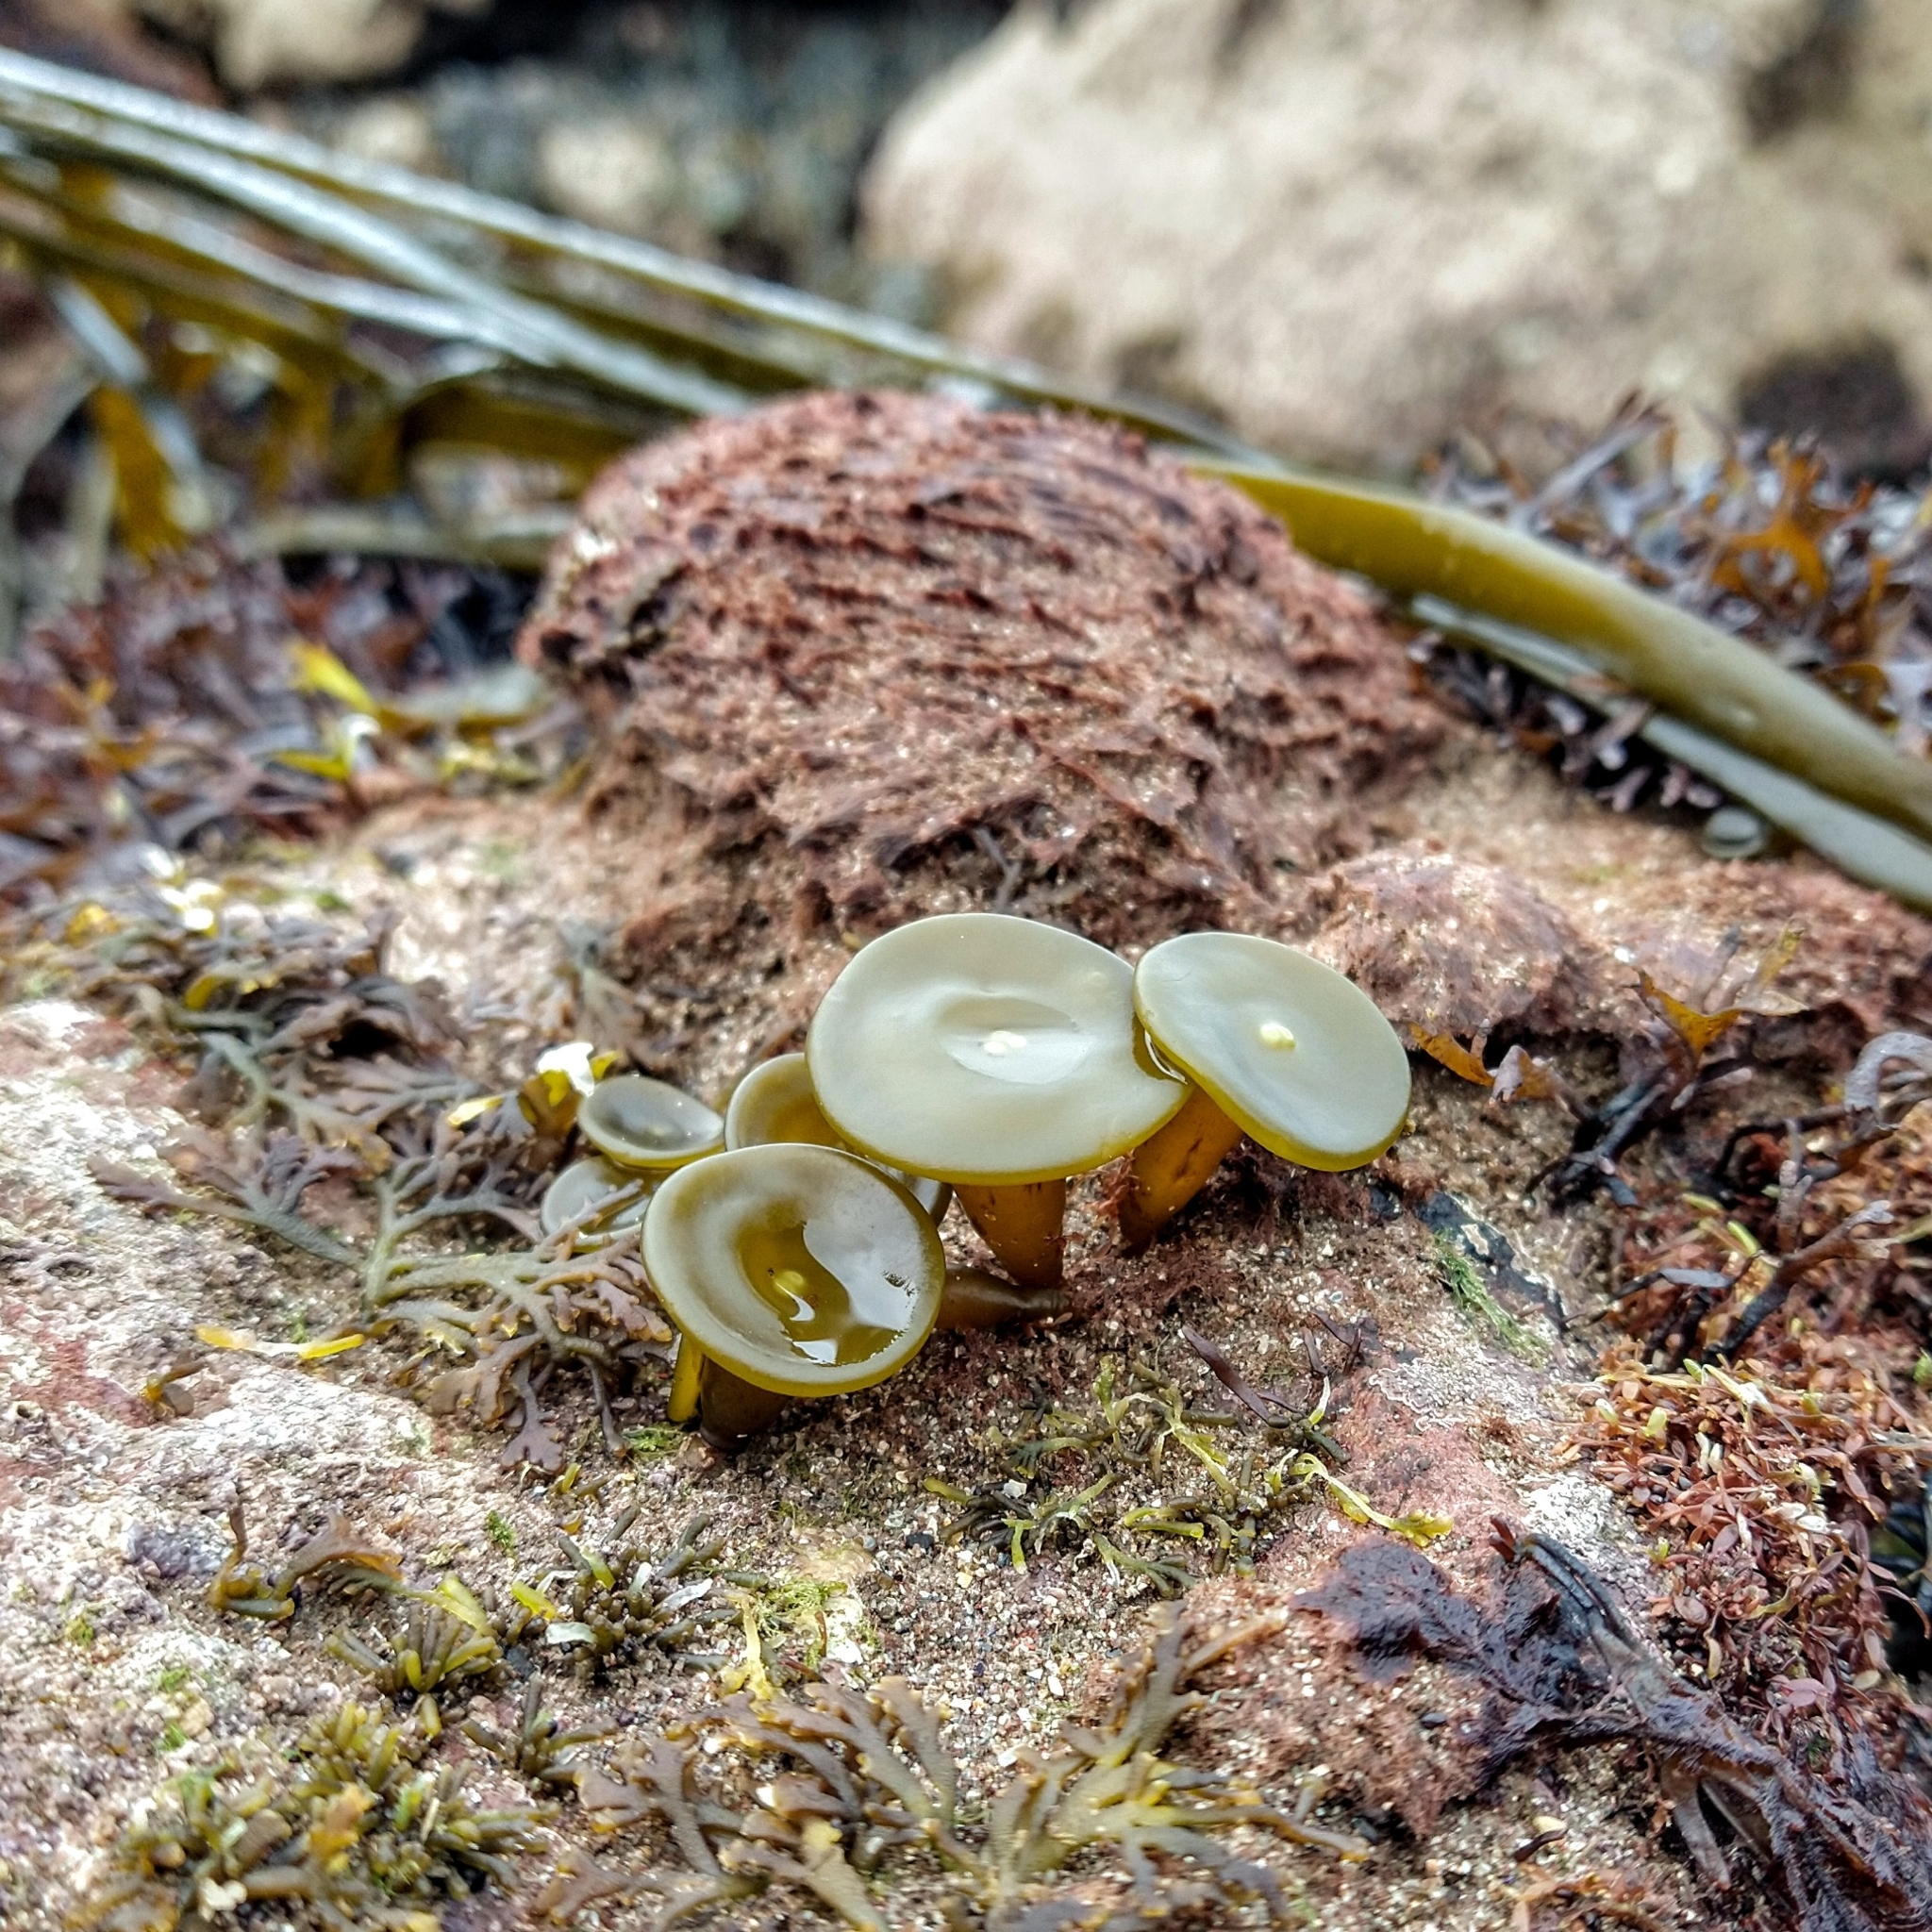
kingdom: Chromista
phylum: Ochrophyta
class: Phaeophyceae
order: Fucales
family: Himanthaliaceae
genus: Himanthalia
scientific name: Himanthalia elongata
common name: Sea-thong
